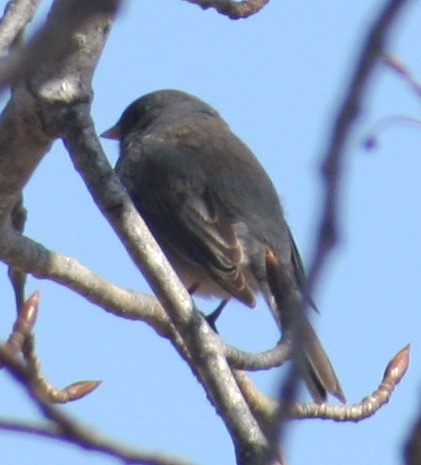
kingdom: Animalia
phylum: Chordata
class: Aves
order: Passeriformes
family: Passerellidae
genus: Junco
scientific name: Junco hyemalis
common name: Dark-eyed junco
